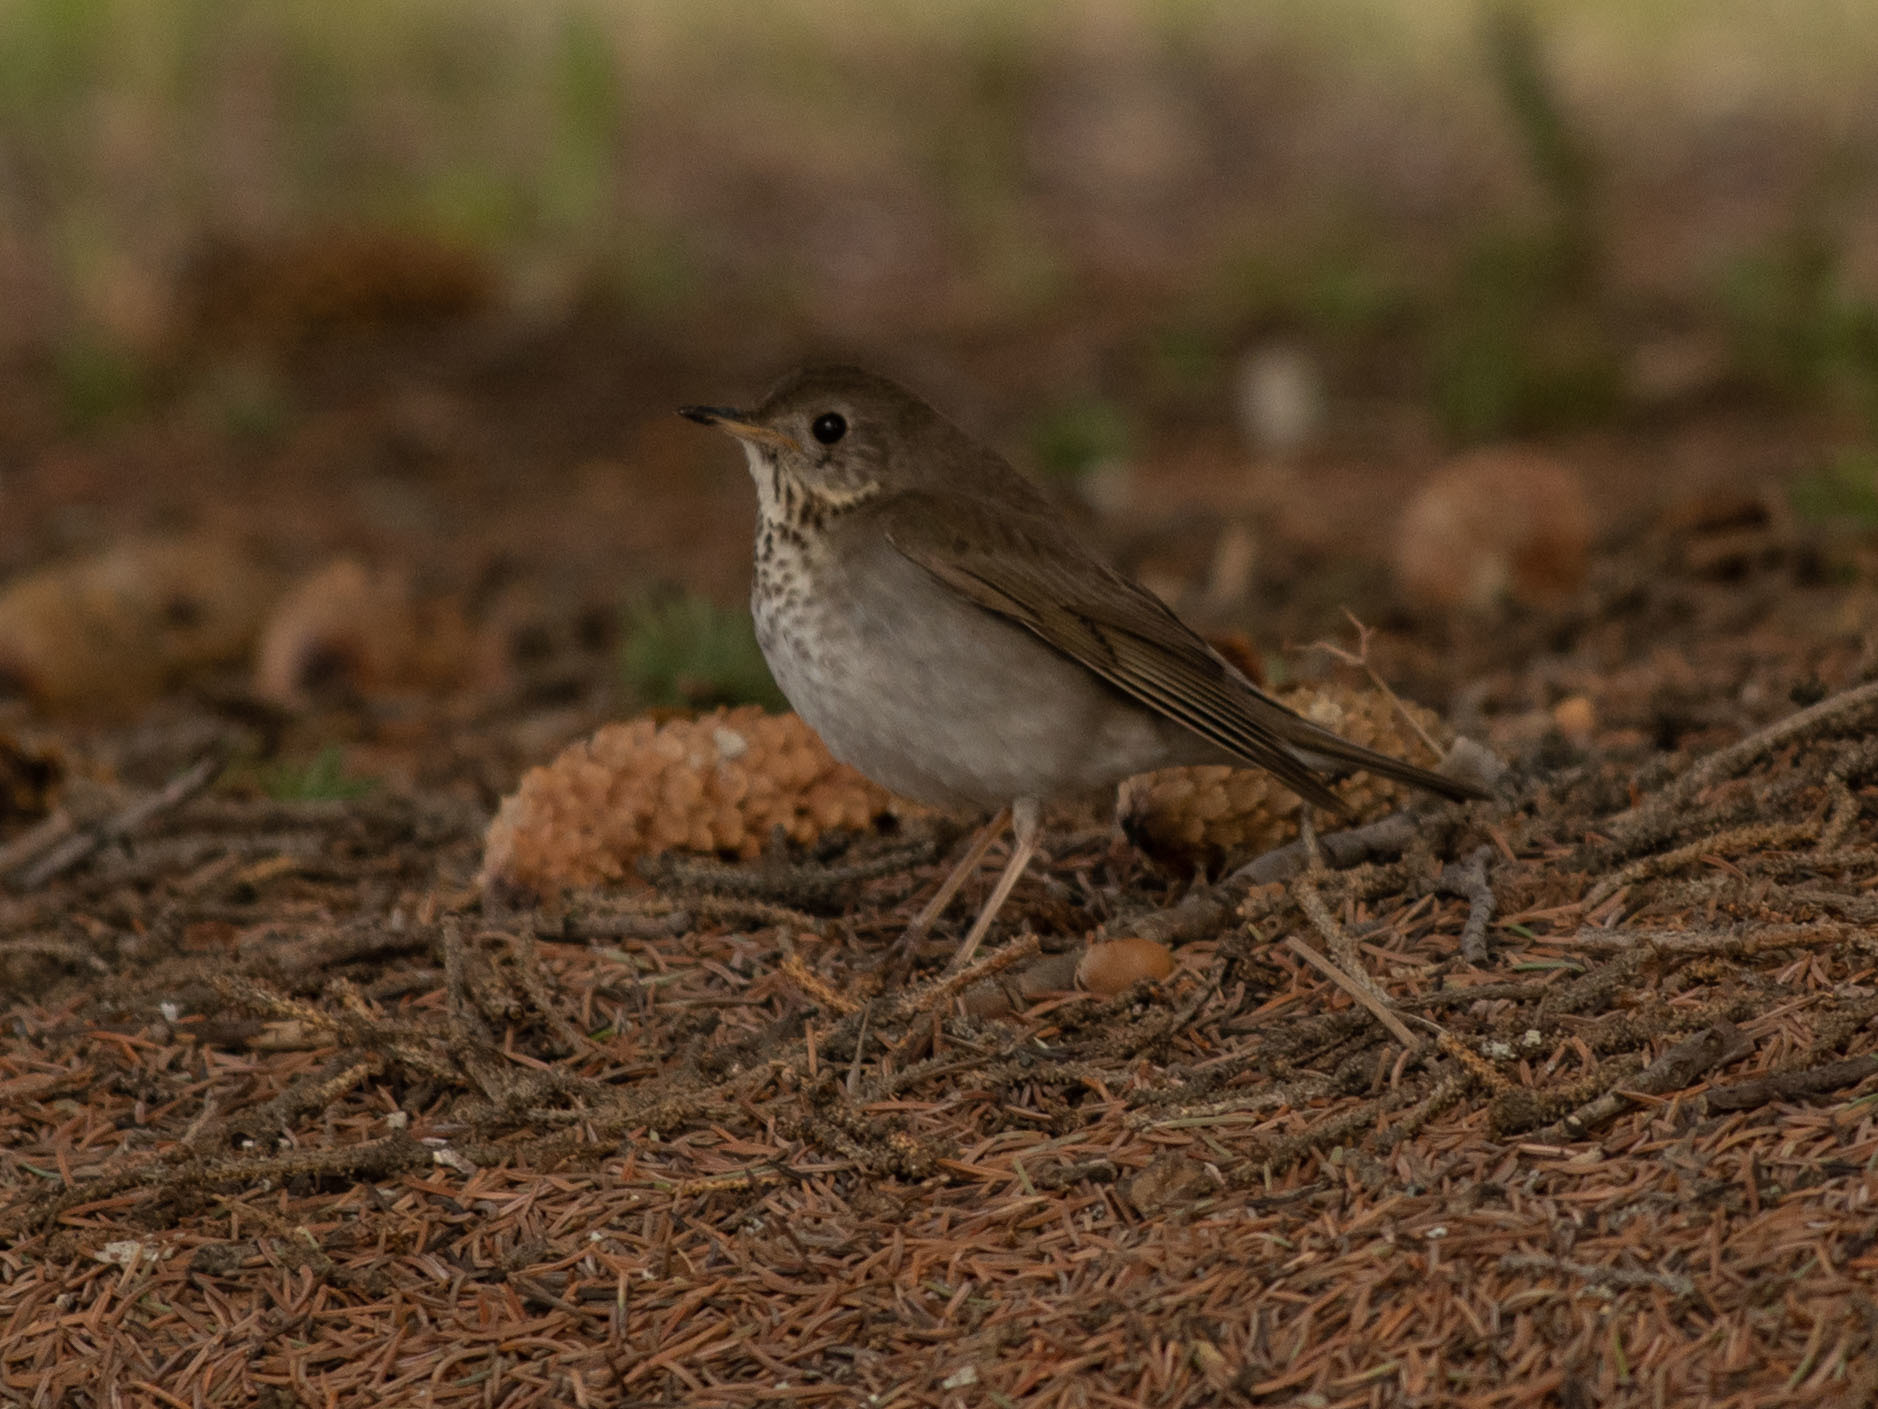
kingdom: Animalia
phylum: Chordata
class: Aves
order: Passeriformes
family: Turdidae
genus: Catharus
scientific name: Catharus minimus
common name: Grey-cheeked thrush
